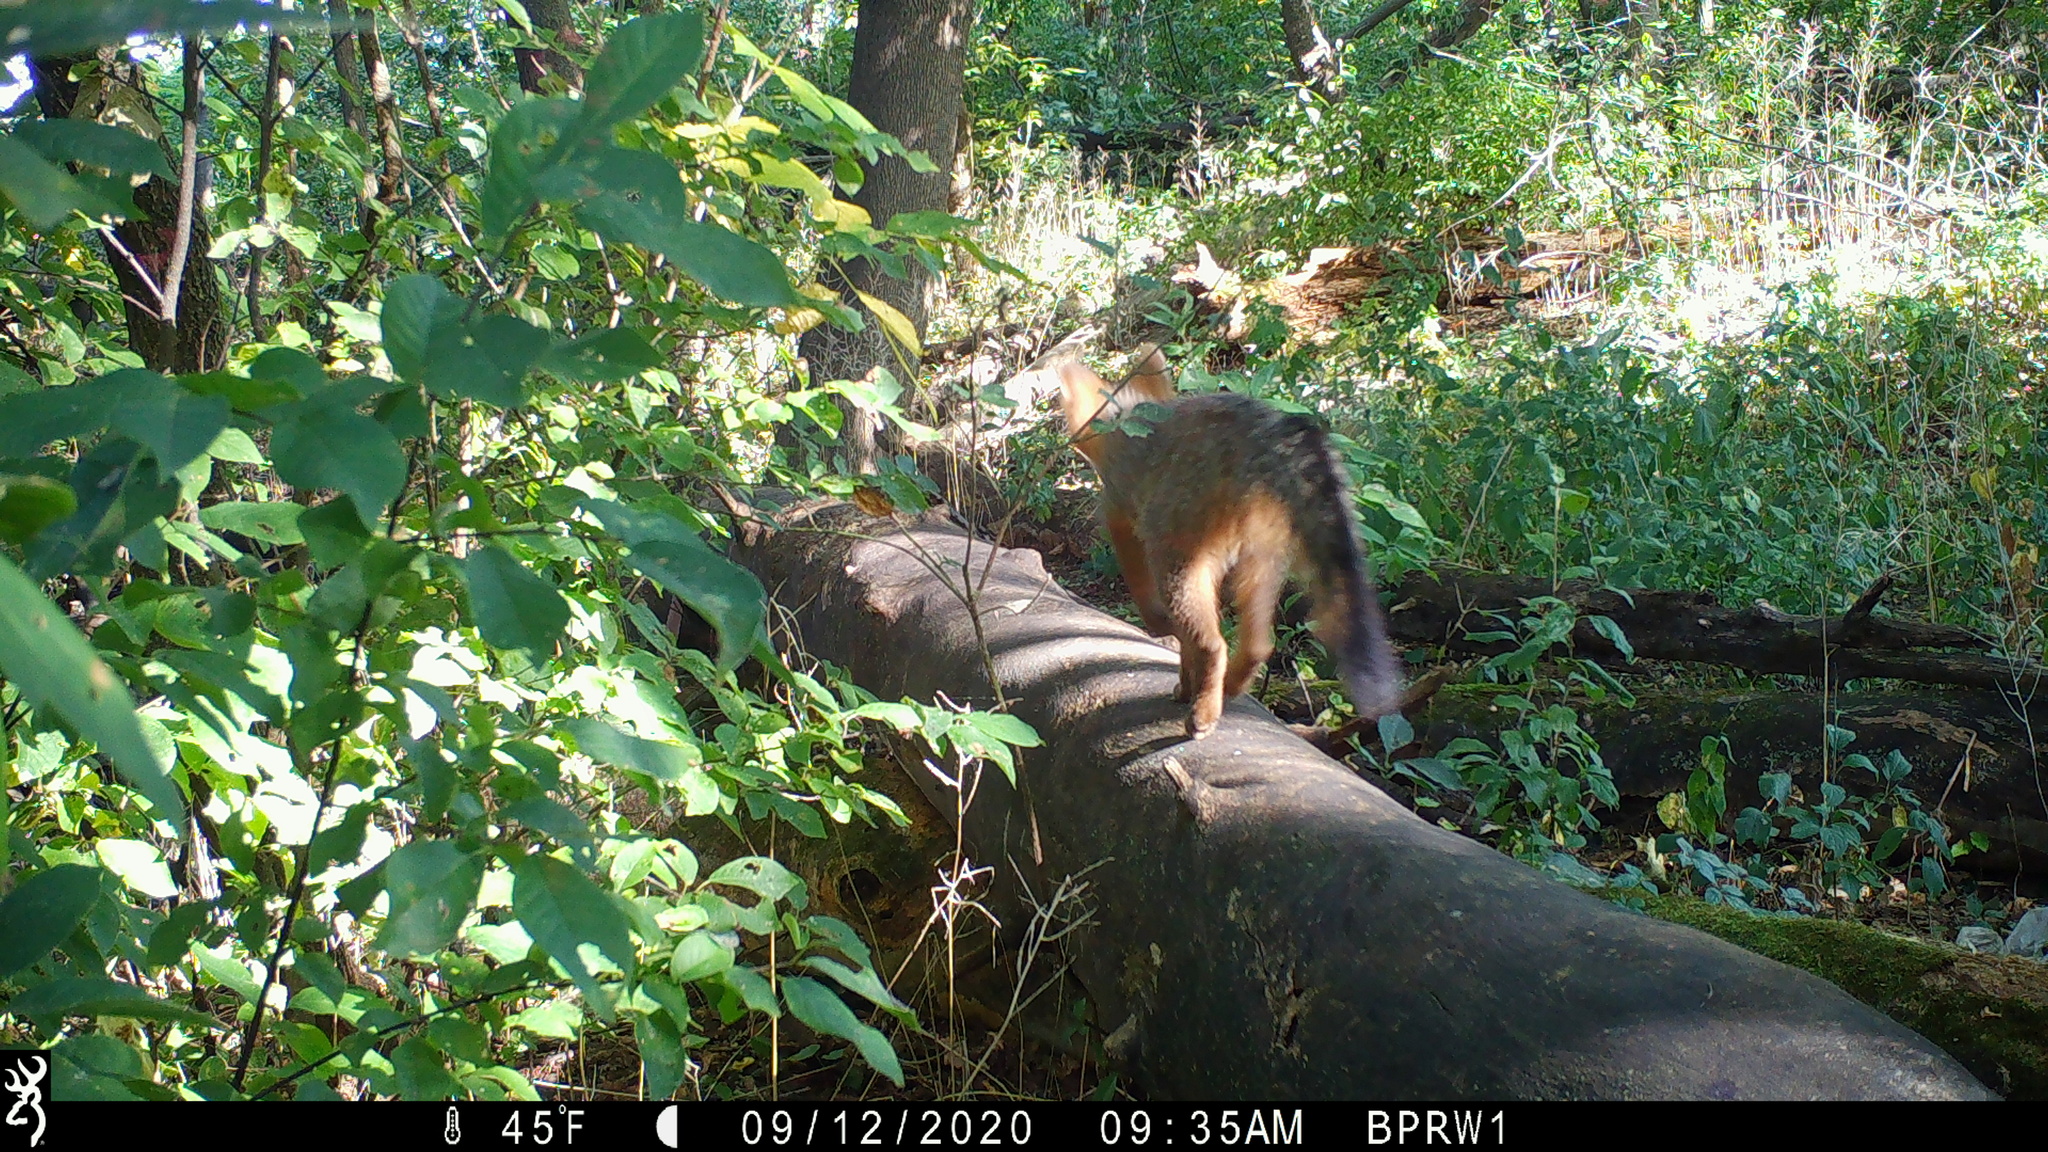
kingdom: Animalia
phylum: Chordata
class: Mammalia
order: Carnivora
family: Canidae
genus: Urocyon
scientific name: Urocyon cinereoargenteus
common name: Gray fox
